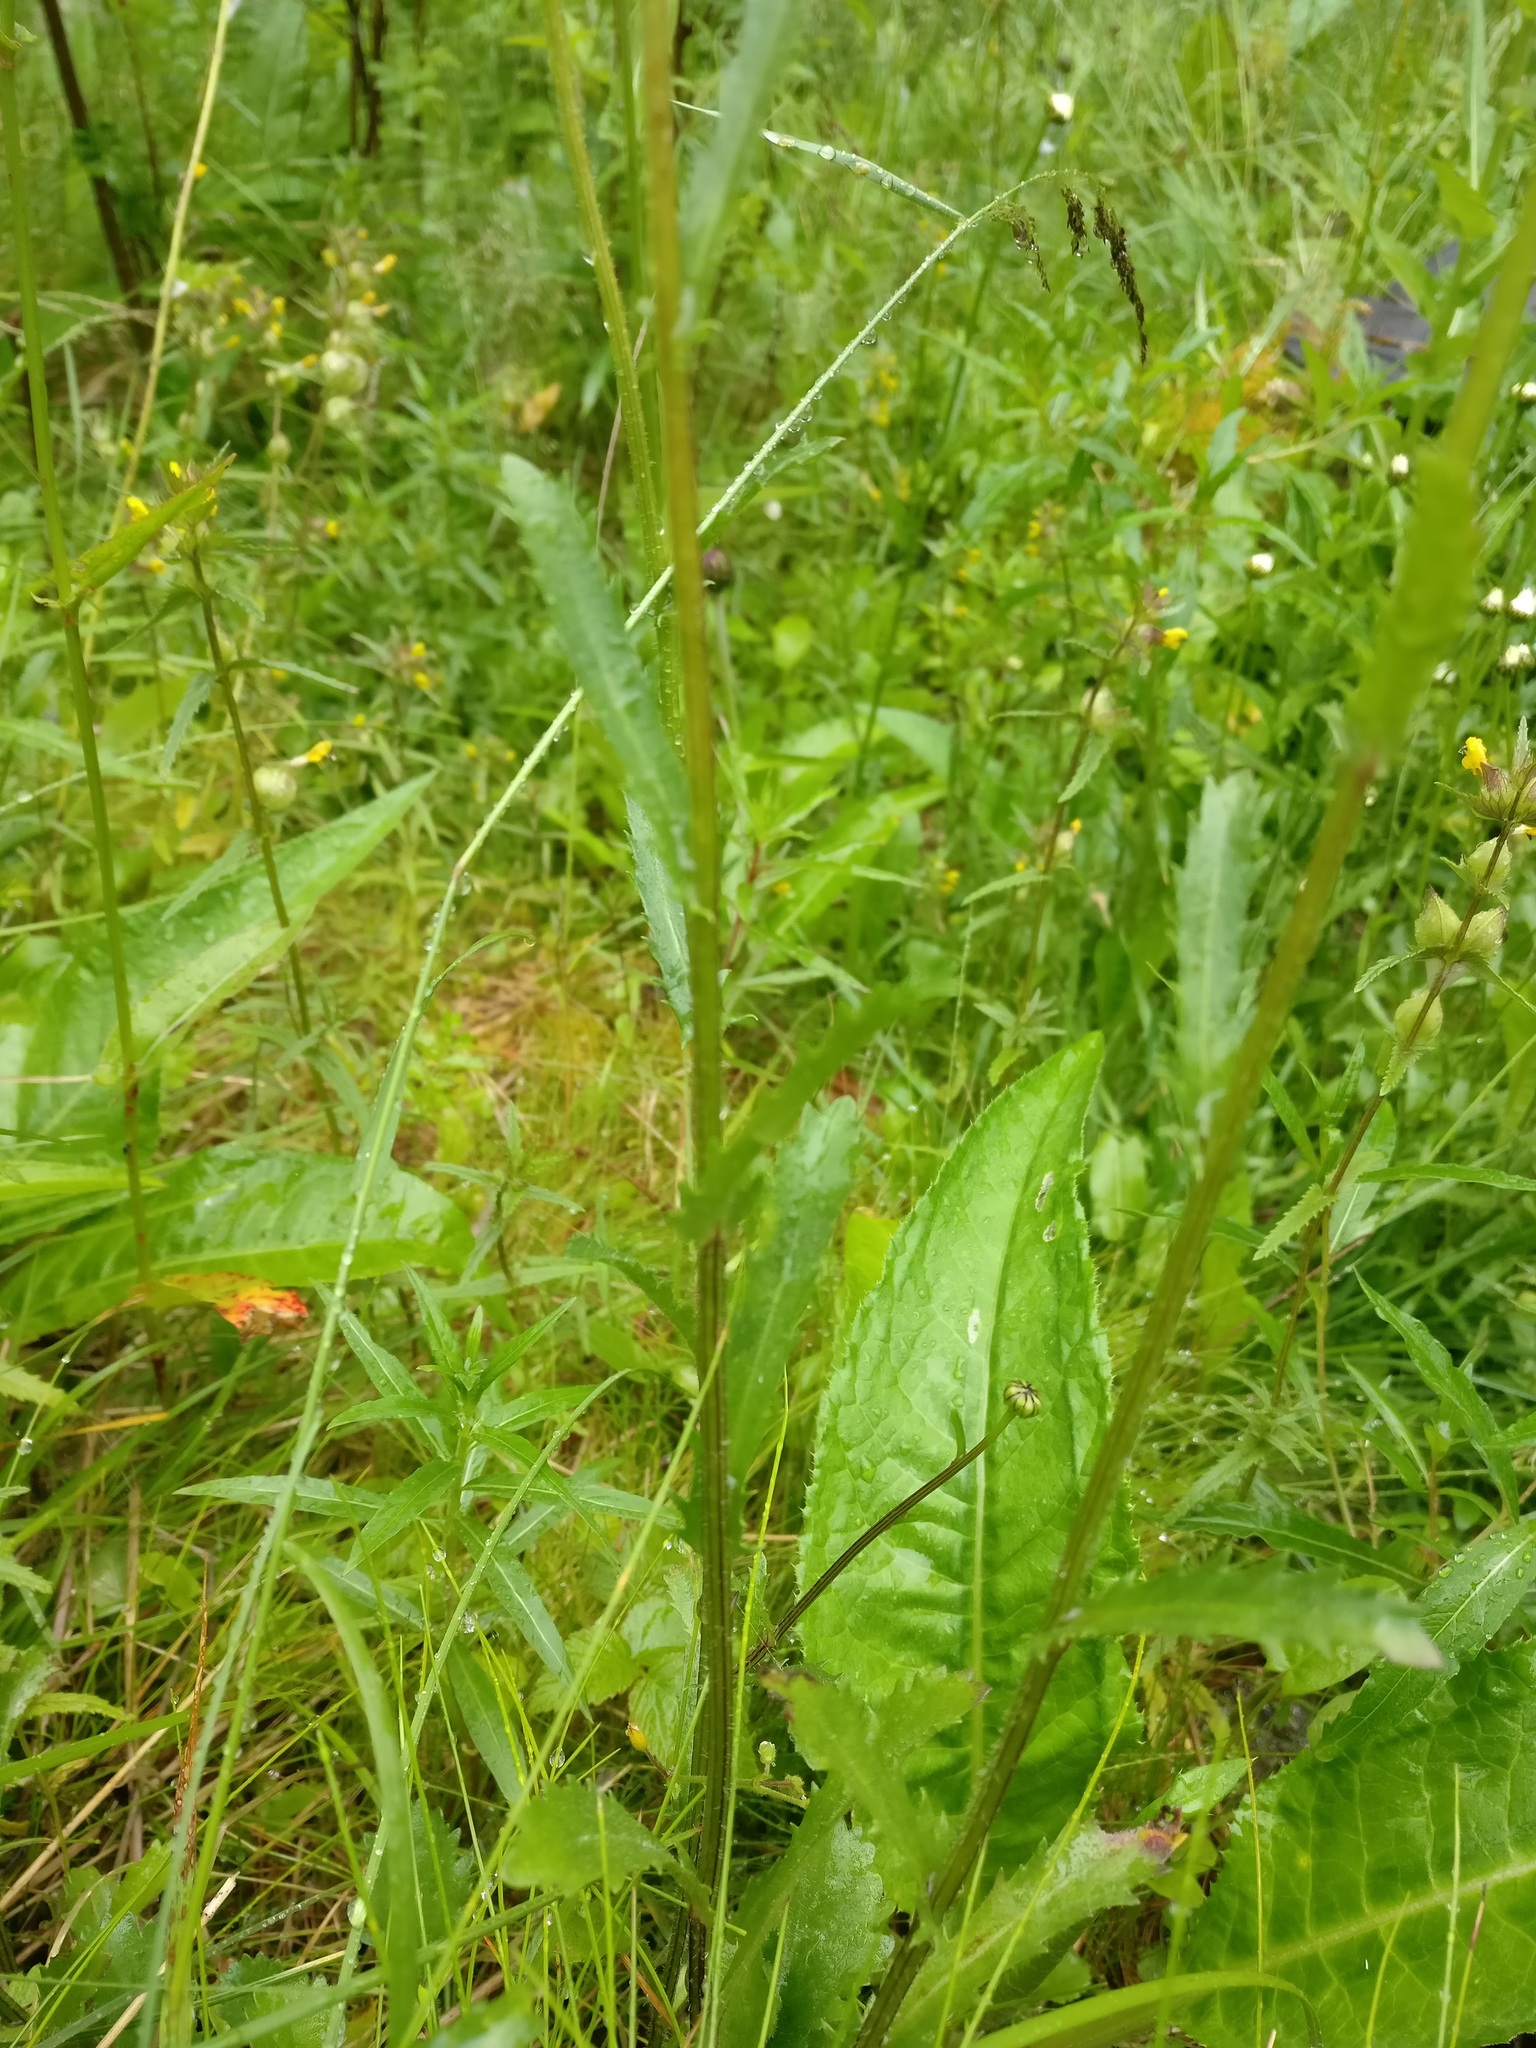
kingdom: Plantae
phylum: Tracheophyta
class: Magnoliopsida
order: Asterales
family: Asteraceae
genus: Leucanthemum
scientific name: Leucanthemum vulgare
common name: Oxeye daisy
